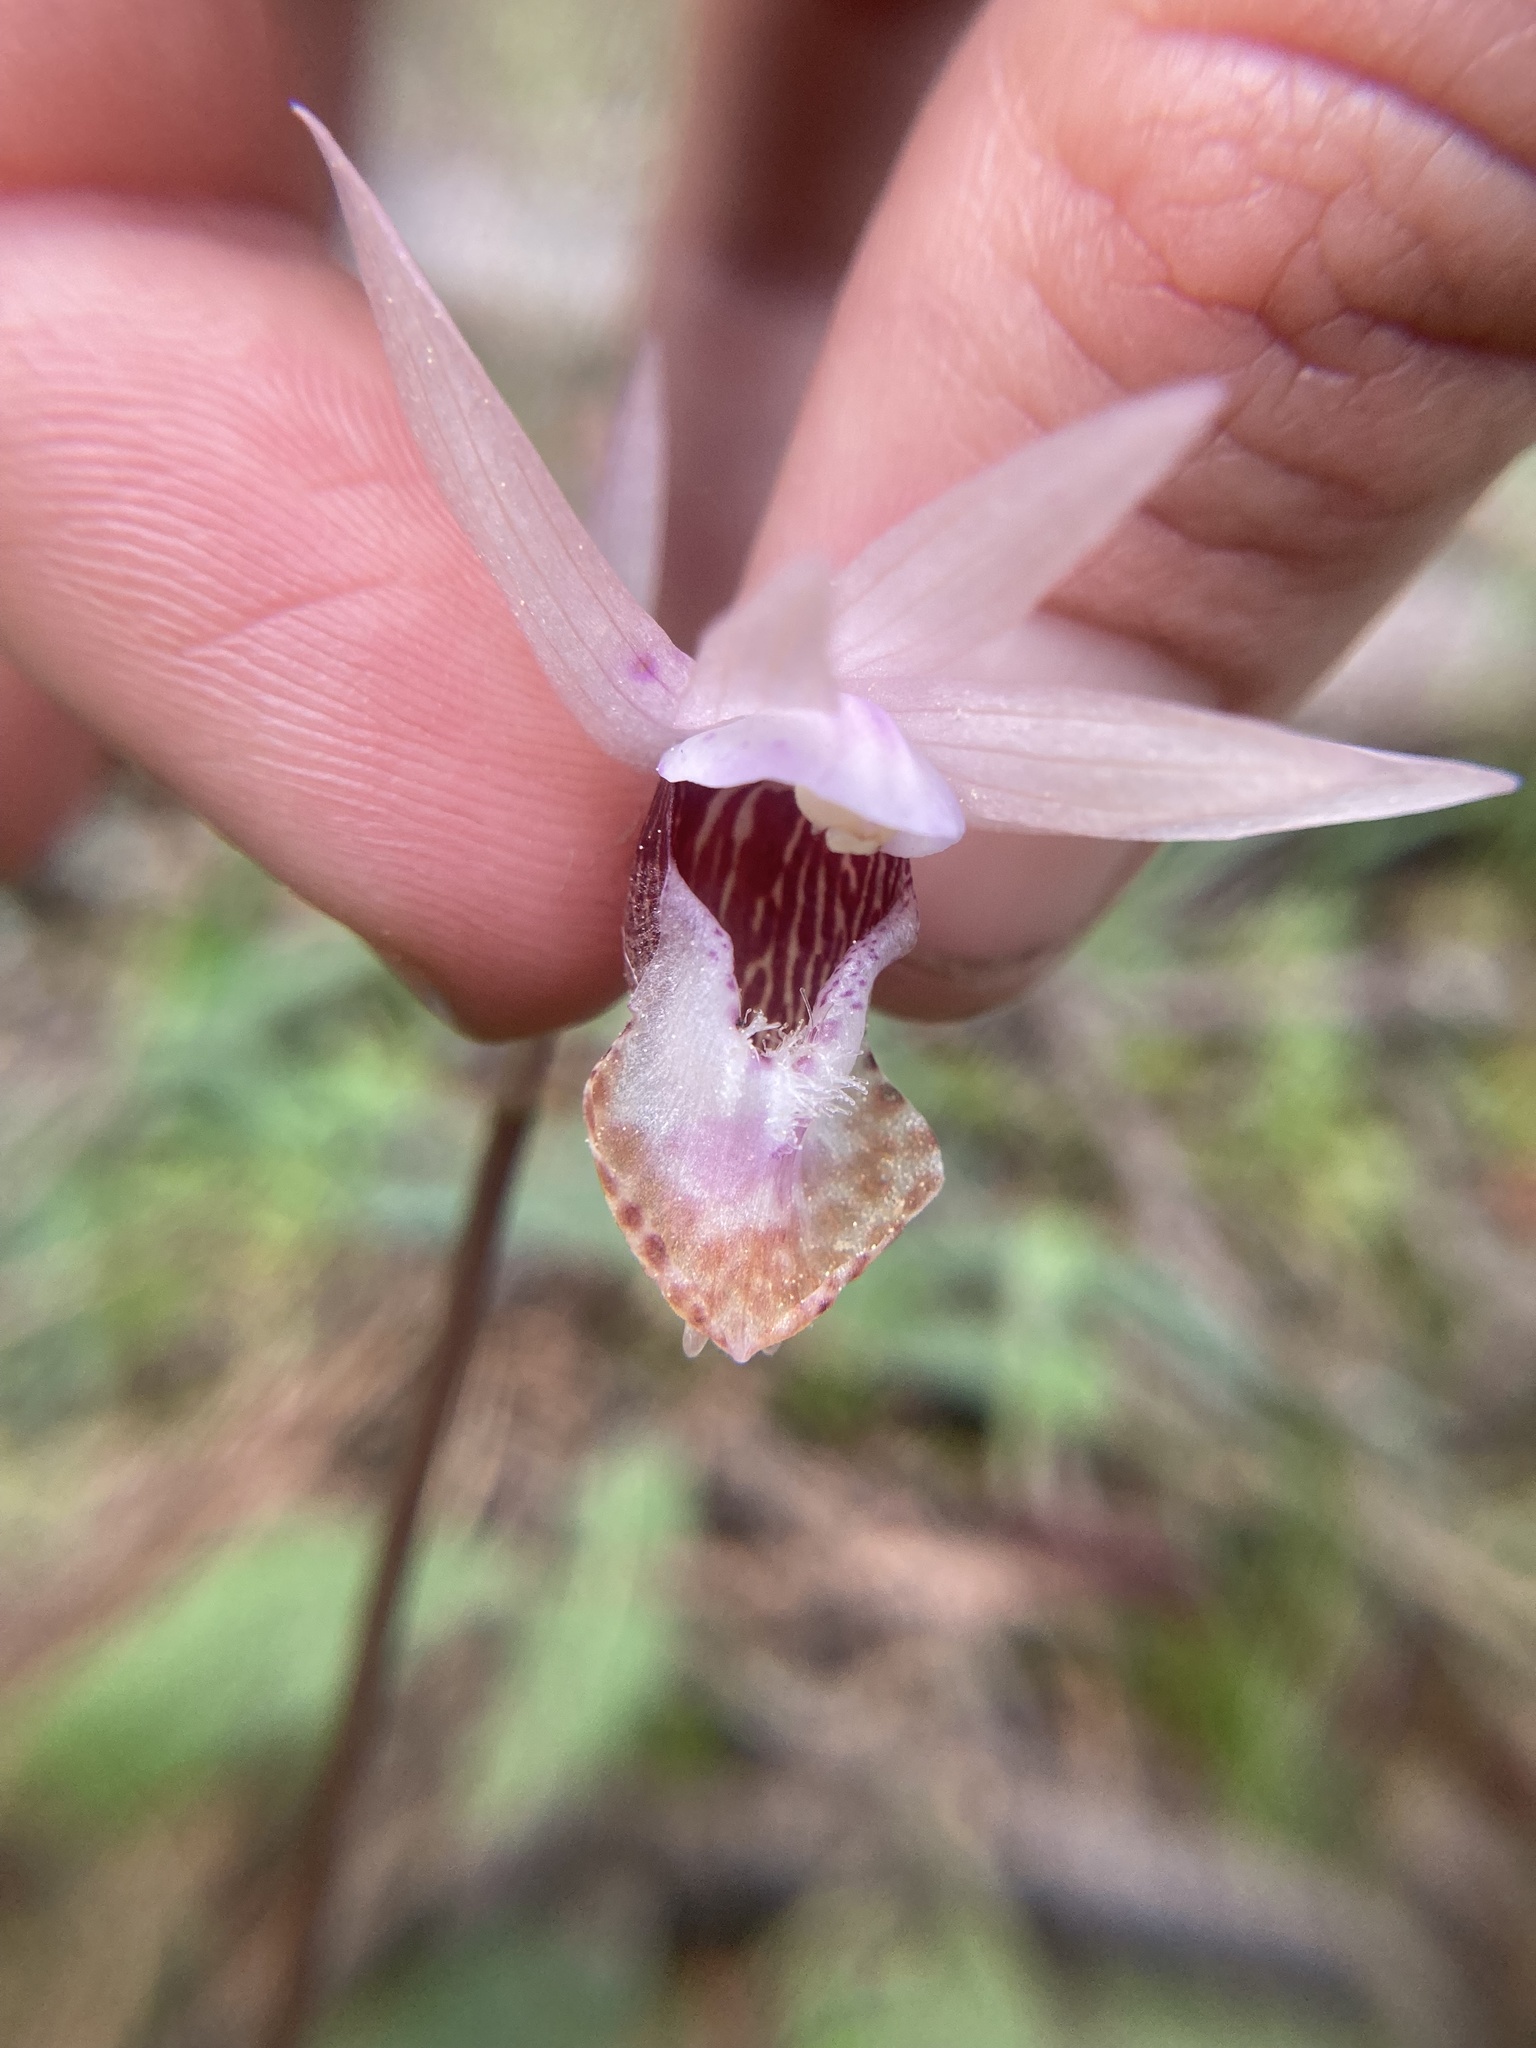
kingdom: Plantae
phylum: Tracheophyta
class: Liliopsida
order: Asparagales
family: Orchidaceae
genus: Calypso
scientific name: Calypso bulbosa
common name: Calypso
